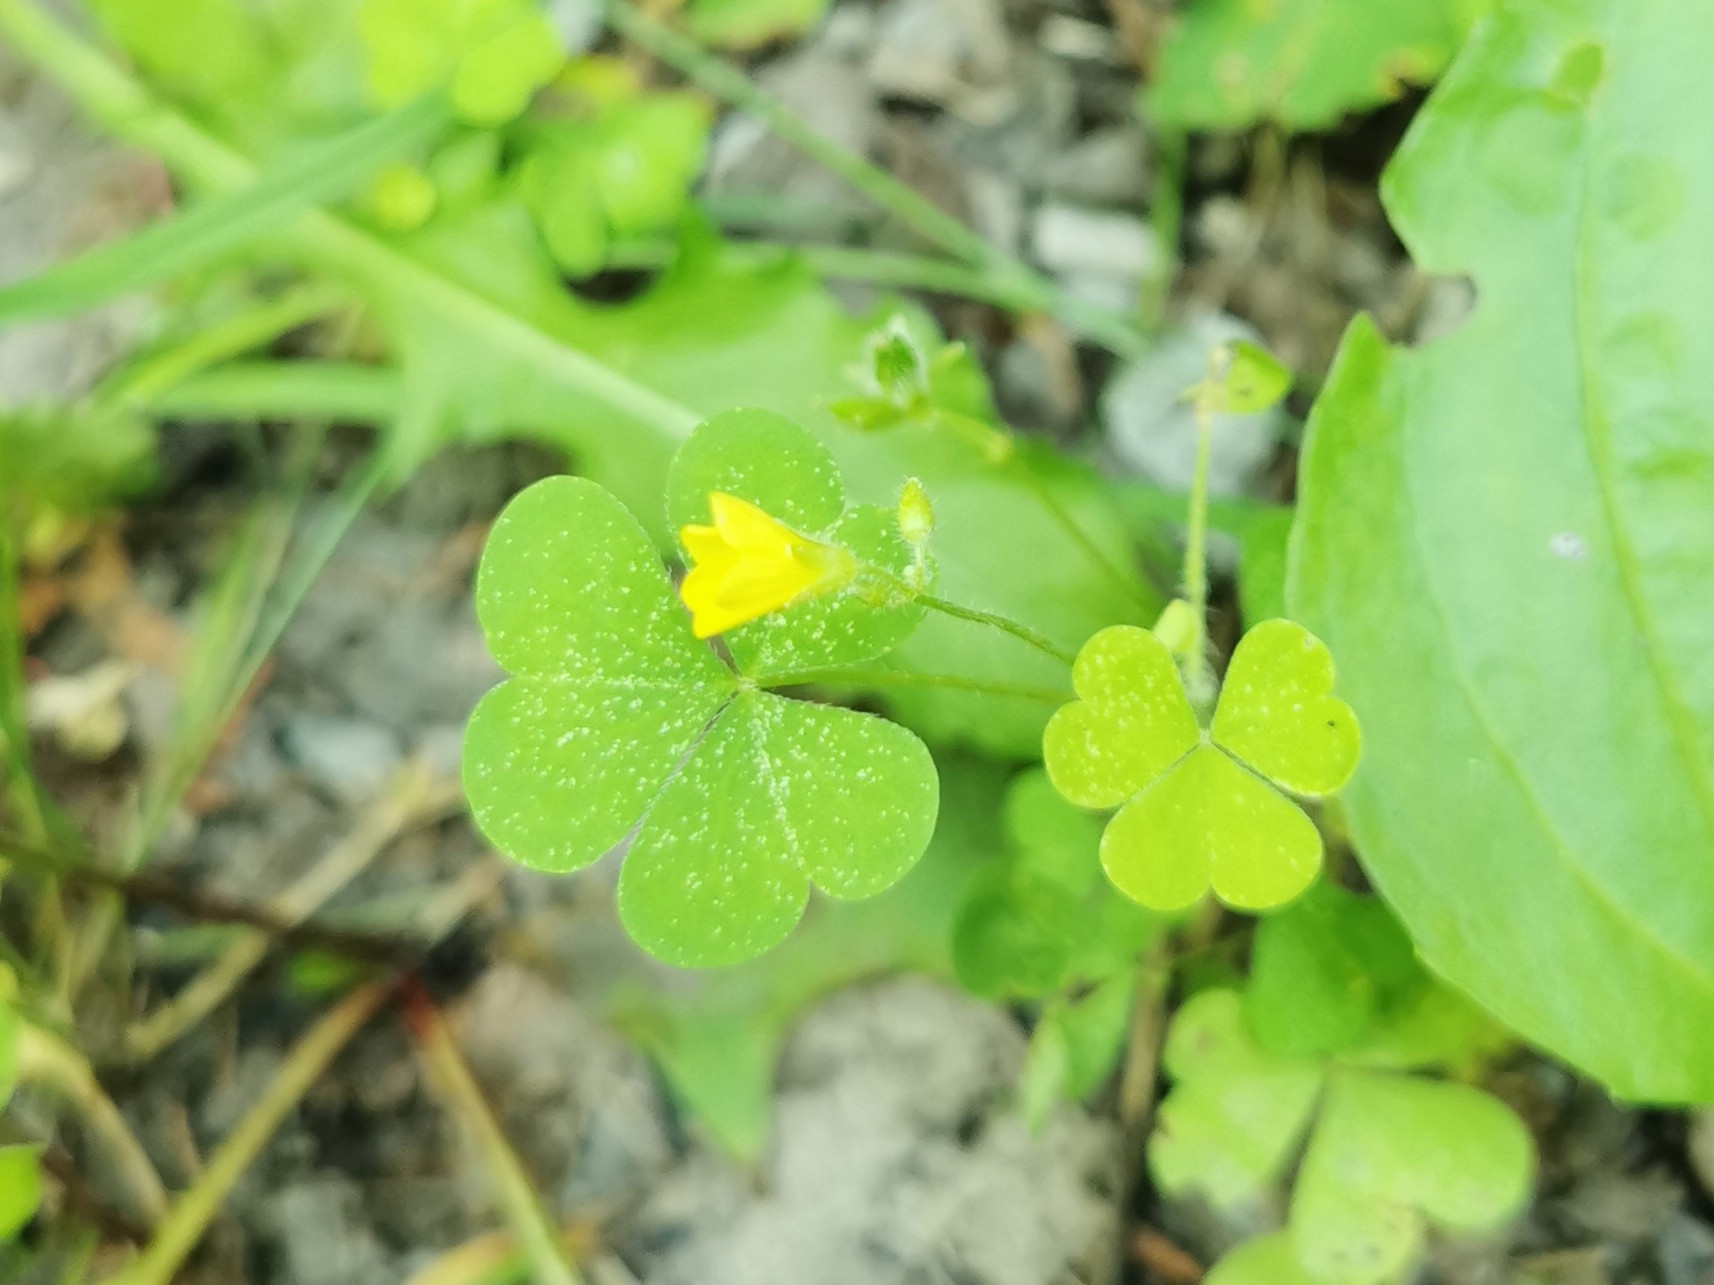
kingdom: Plantae
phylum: Tracheophyta
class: Magnoliopsida
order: Oxalidales
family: Oxalidaceae
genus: Oxalis
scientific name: Oxalis stricta
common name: Upright yellow-sorrel
